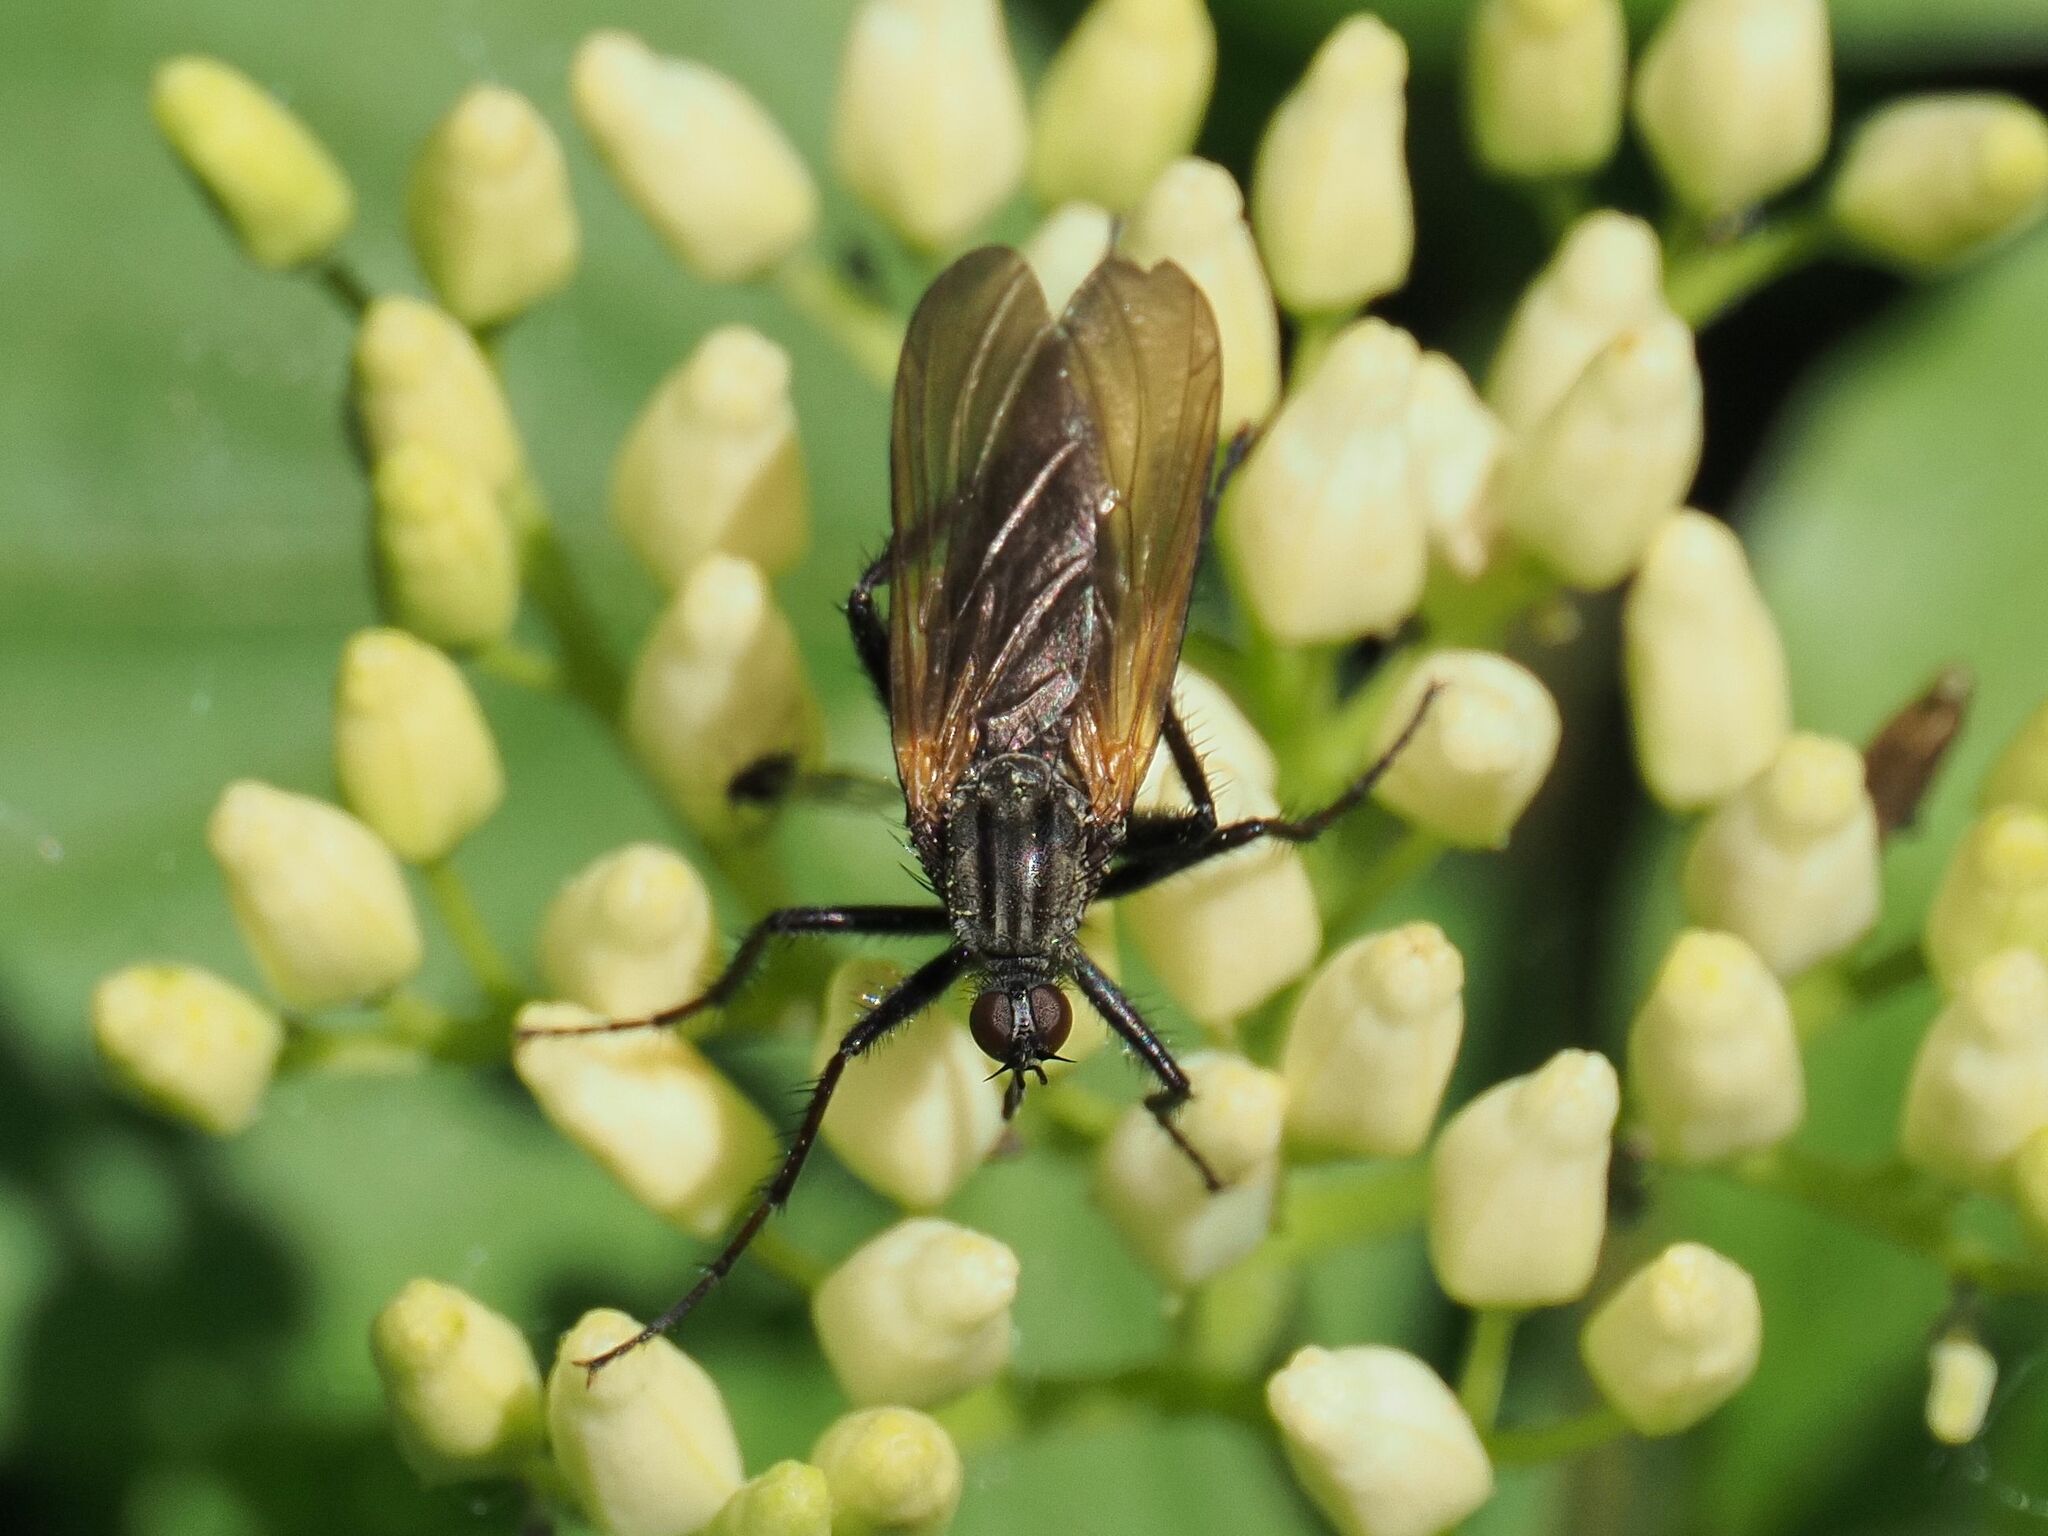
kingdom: Animalia
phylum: Arthropoda
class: Insecta
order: Diptera
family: Empididae
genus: Empis
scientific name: Empis tessellata
